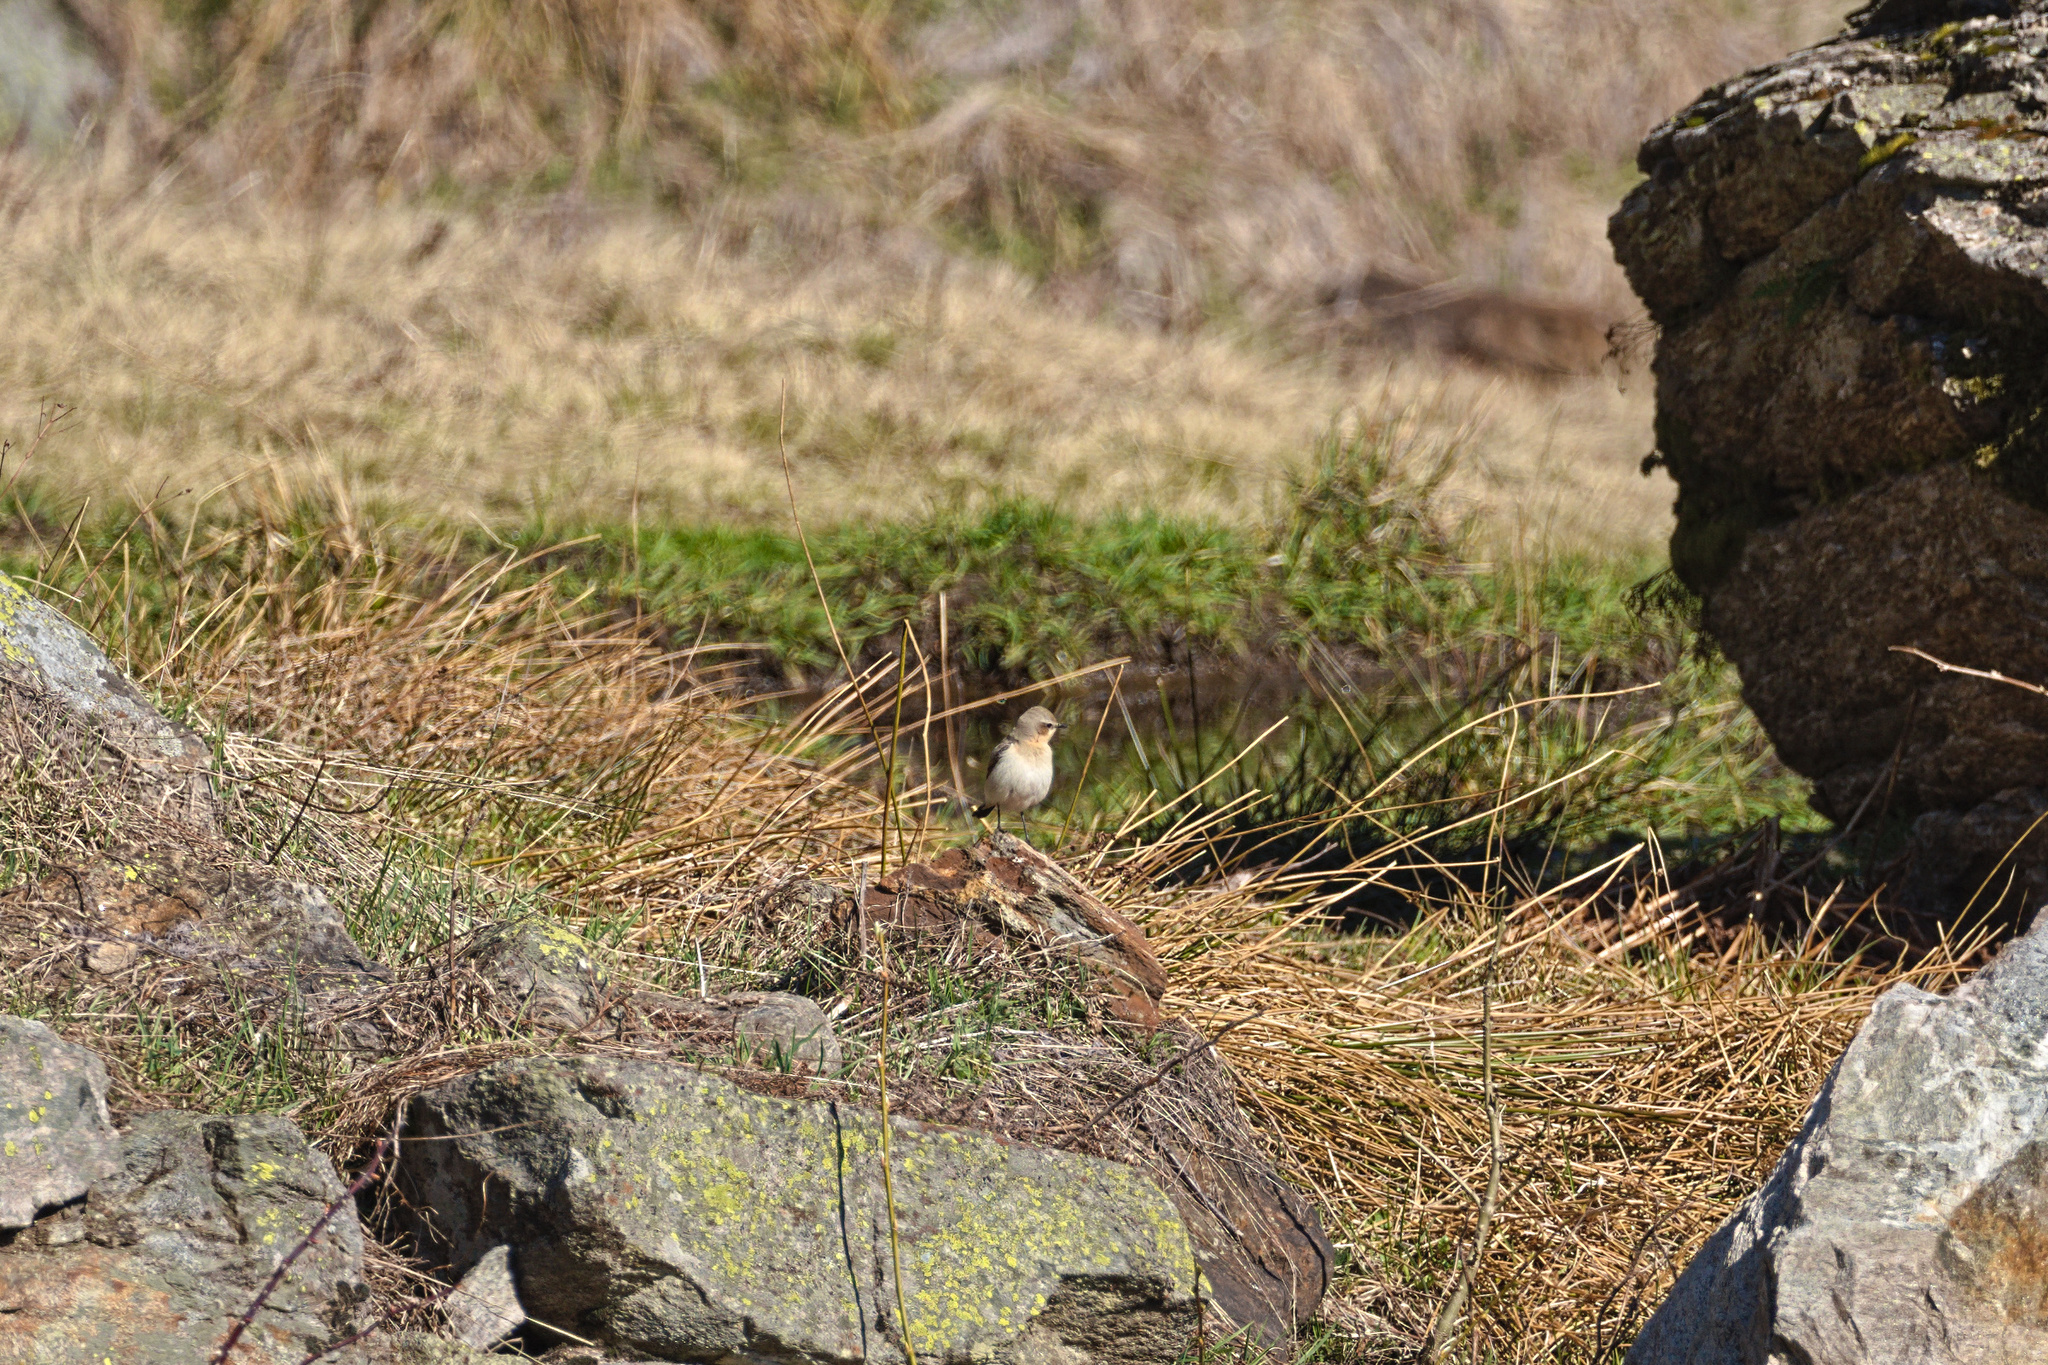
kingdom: Animalia
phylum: Chordata
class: Aves
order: Passeriformes
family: Muscicapidae
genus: Oenanthe
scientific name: Oenanthe oenanthe
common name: Northern wheatear
